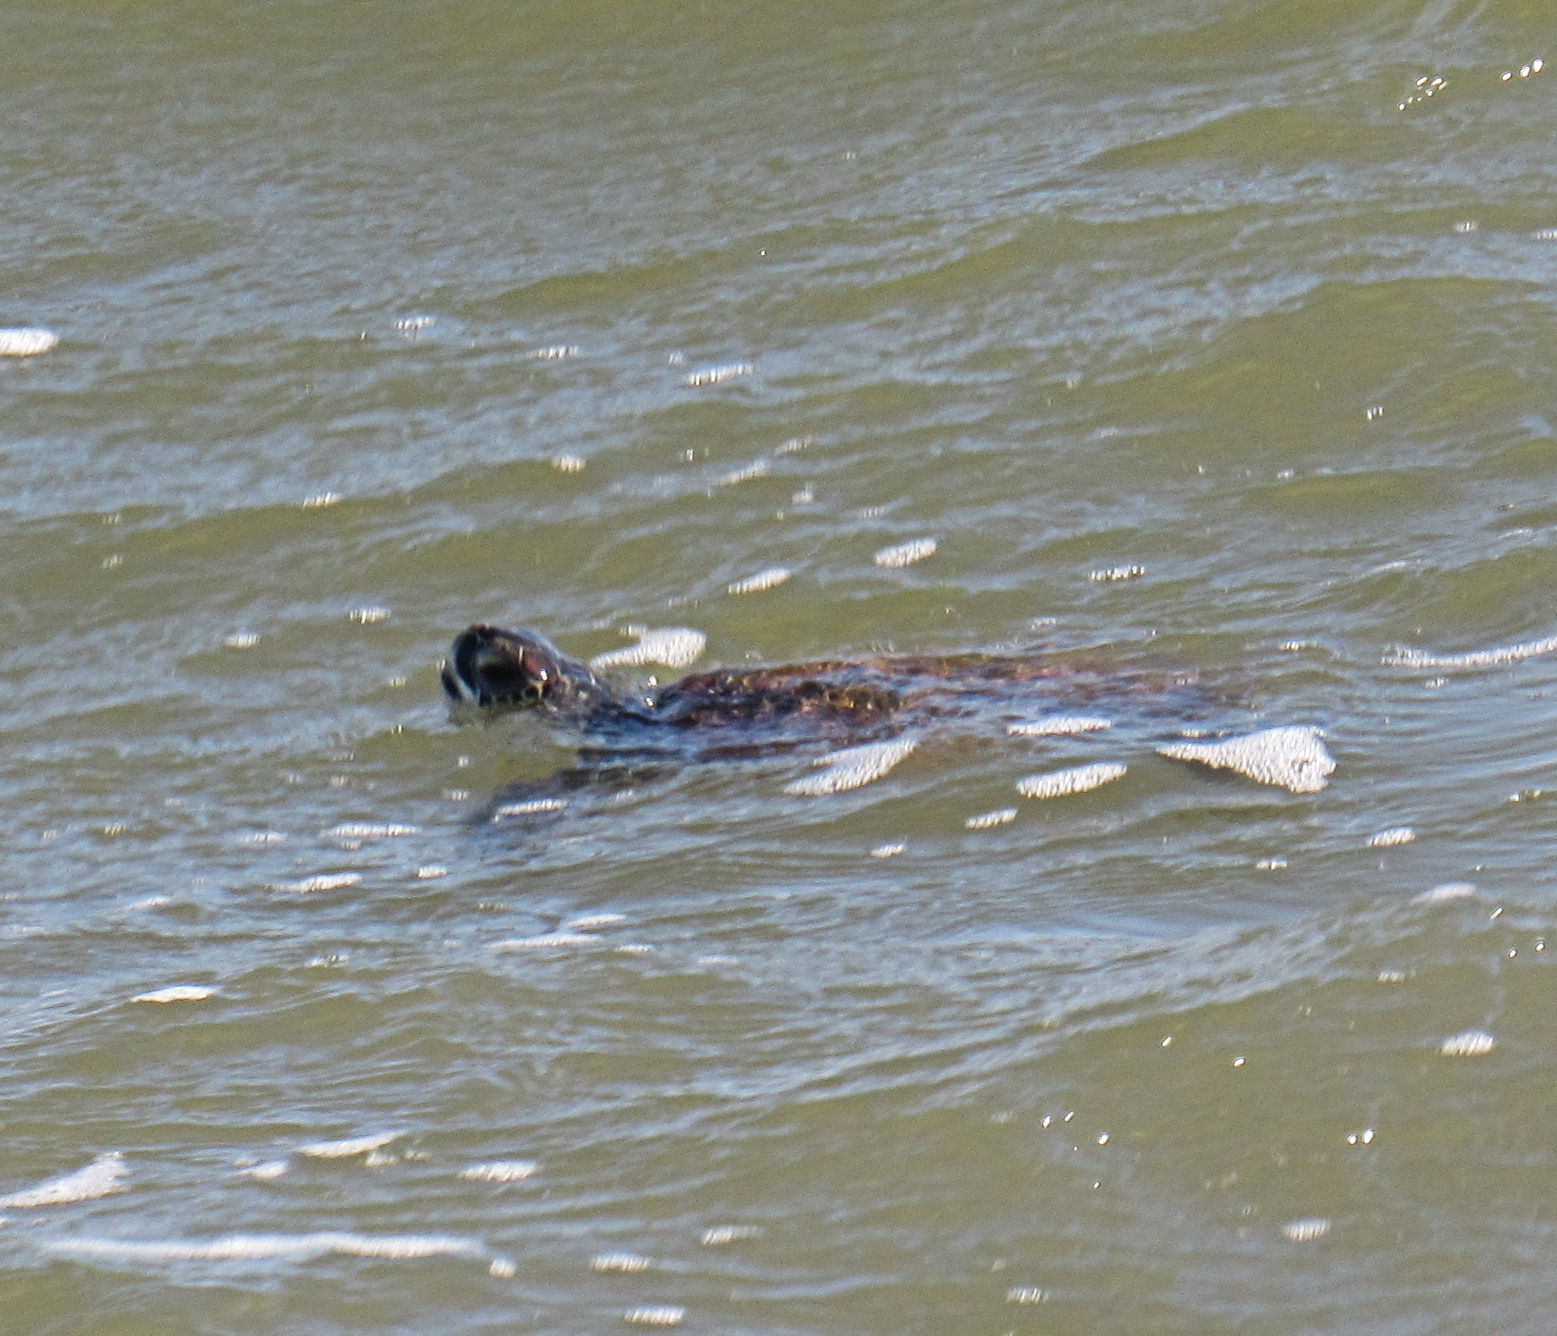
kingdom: Animalia
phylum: Chordata
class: Testudines
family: Cheloniidae
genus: Chelonia
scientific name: Chelonia mydas
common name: Green turtle
